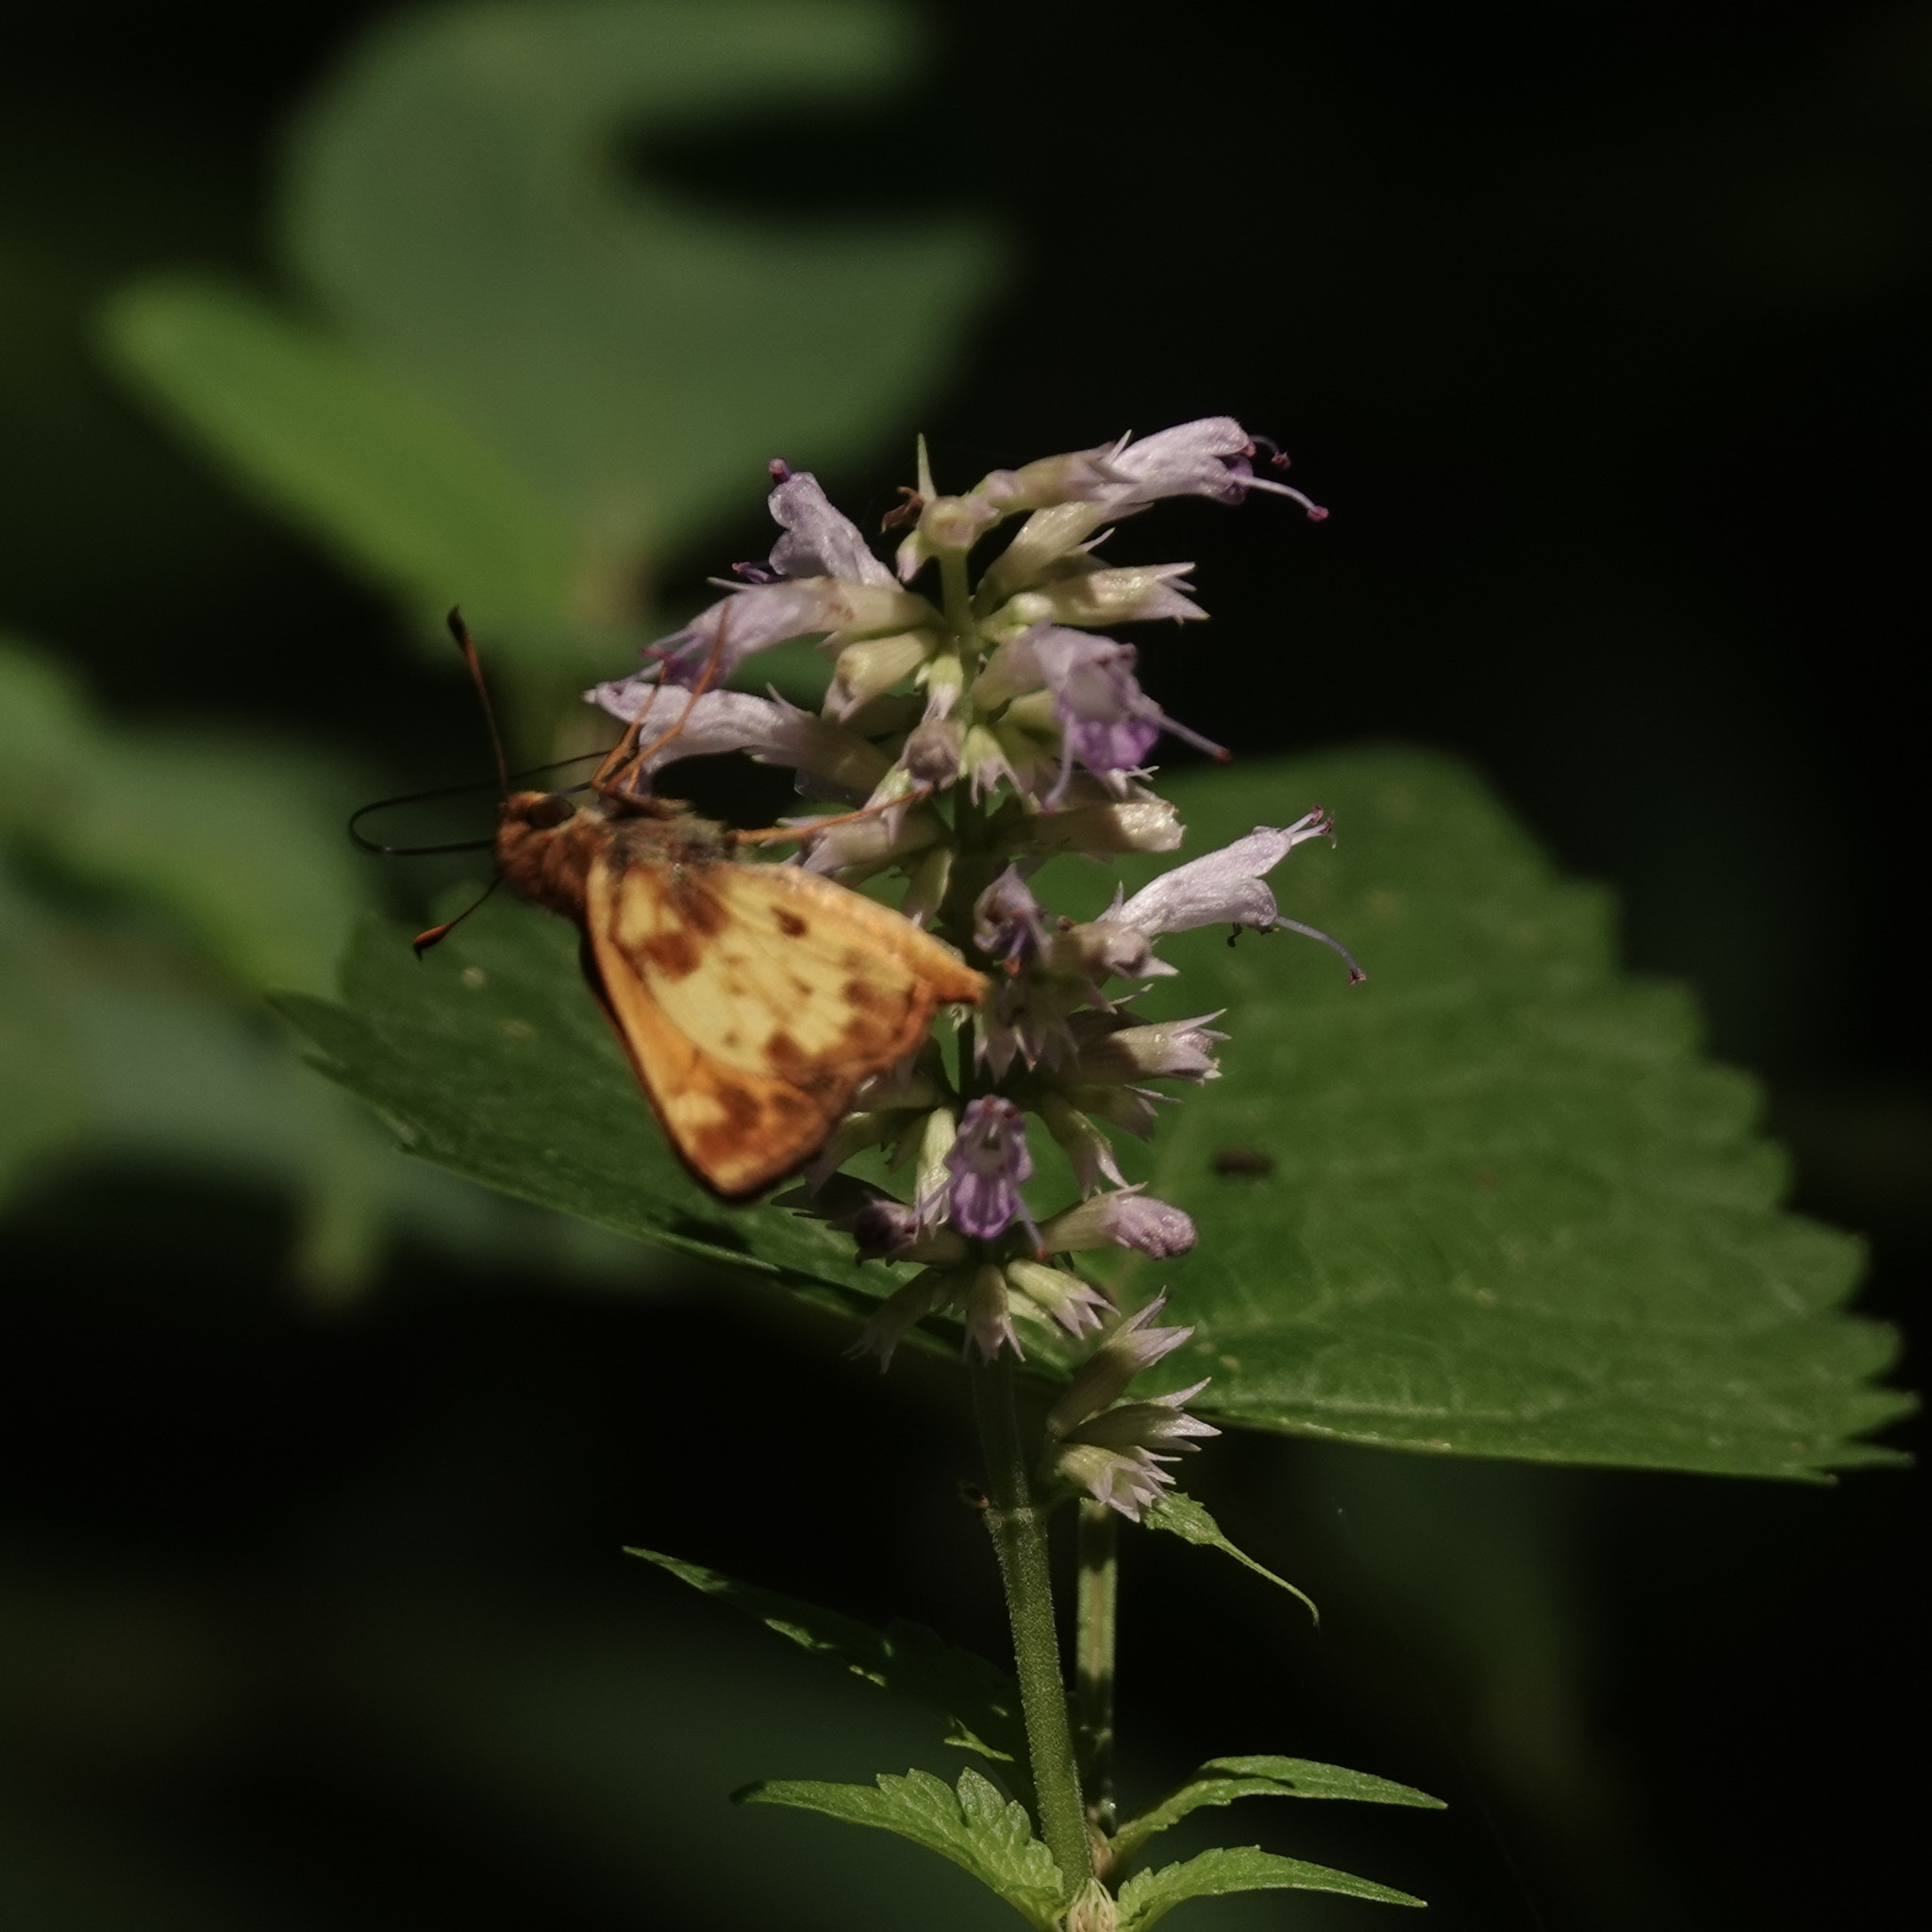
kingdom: Animalia
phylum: Arthropoda
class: Insecta
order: Lepidoptera
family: Hesperiidae
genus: Lon
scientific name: Lon zabulon
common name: Zabulon skipper
